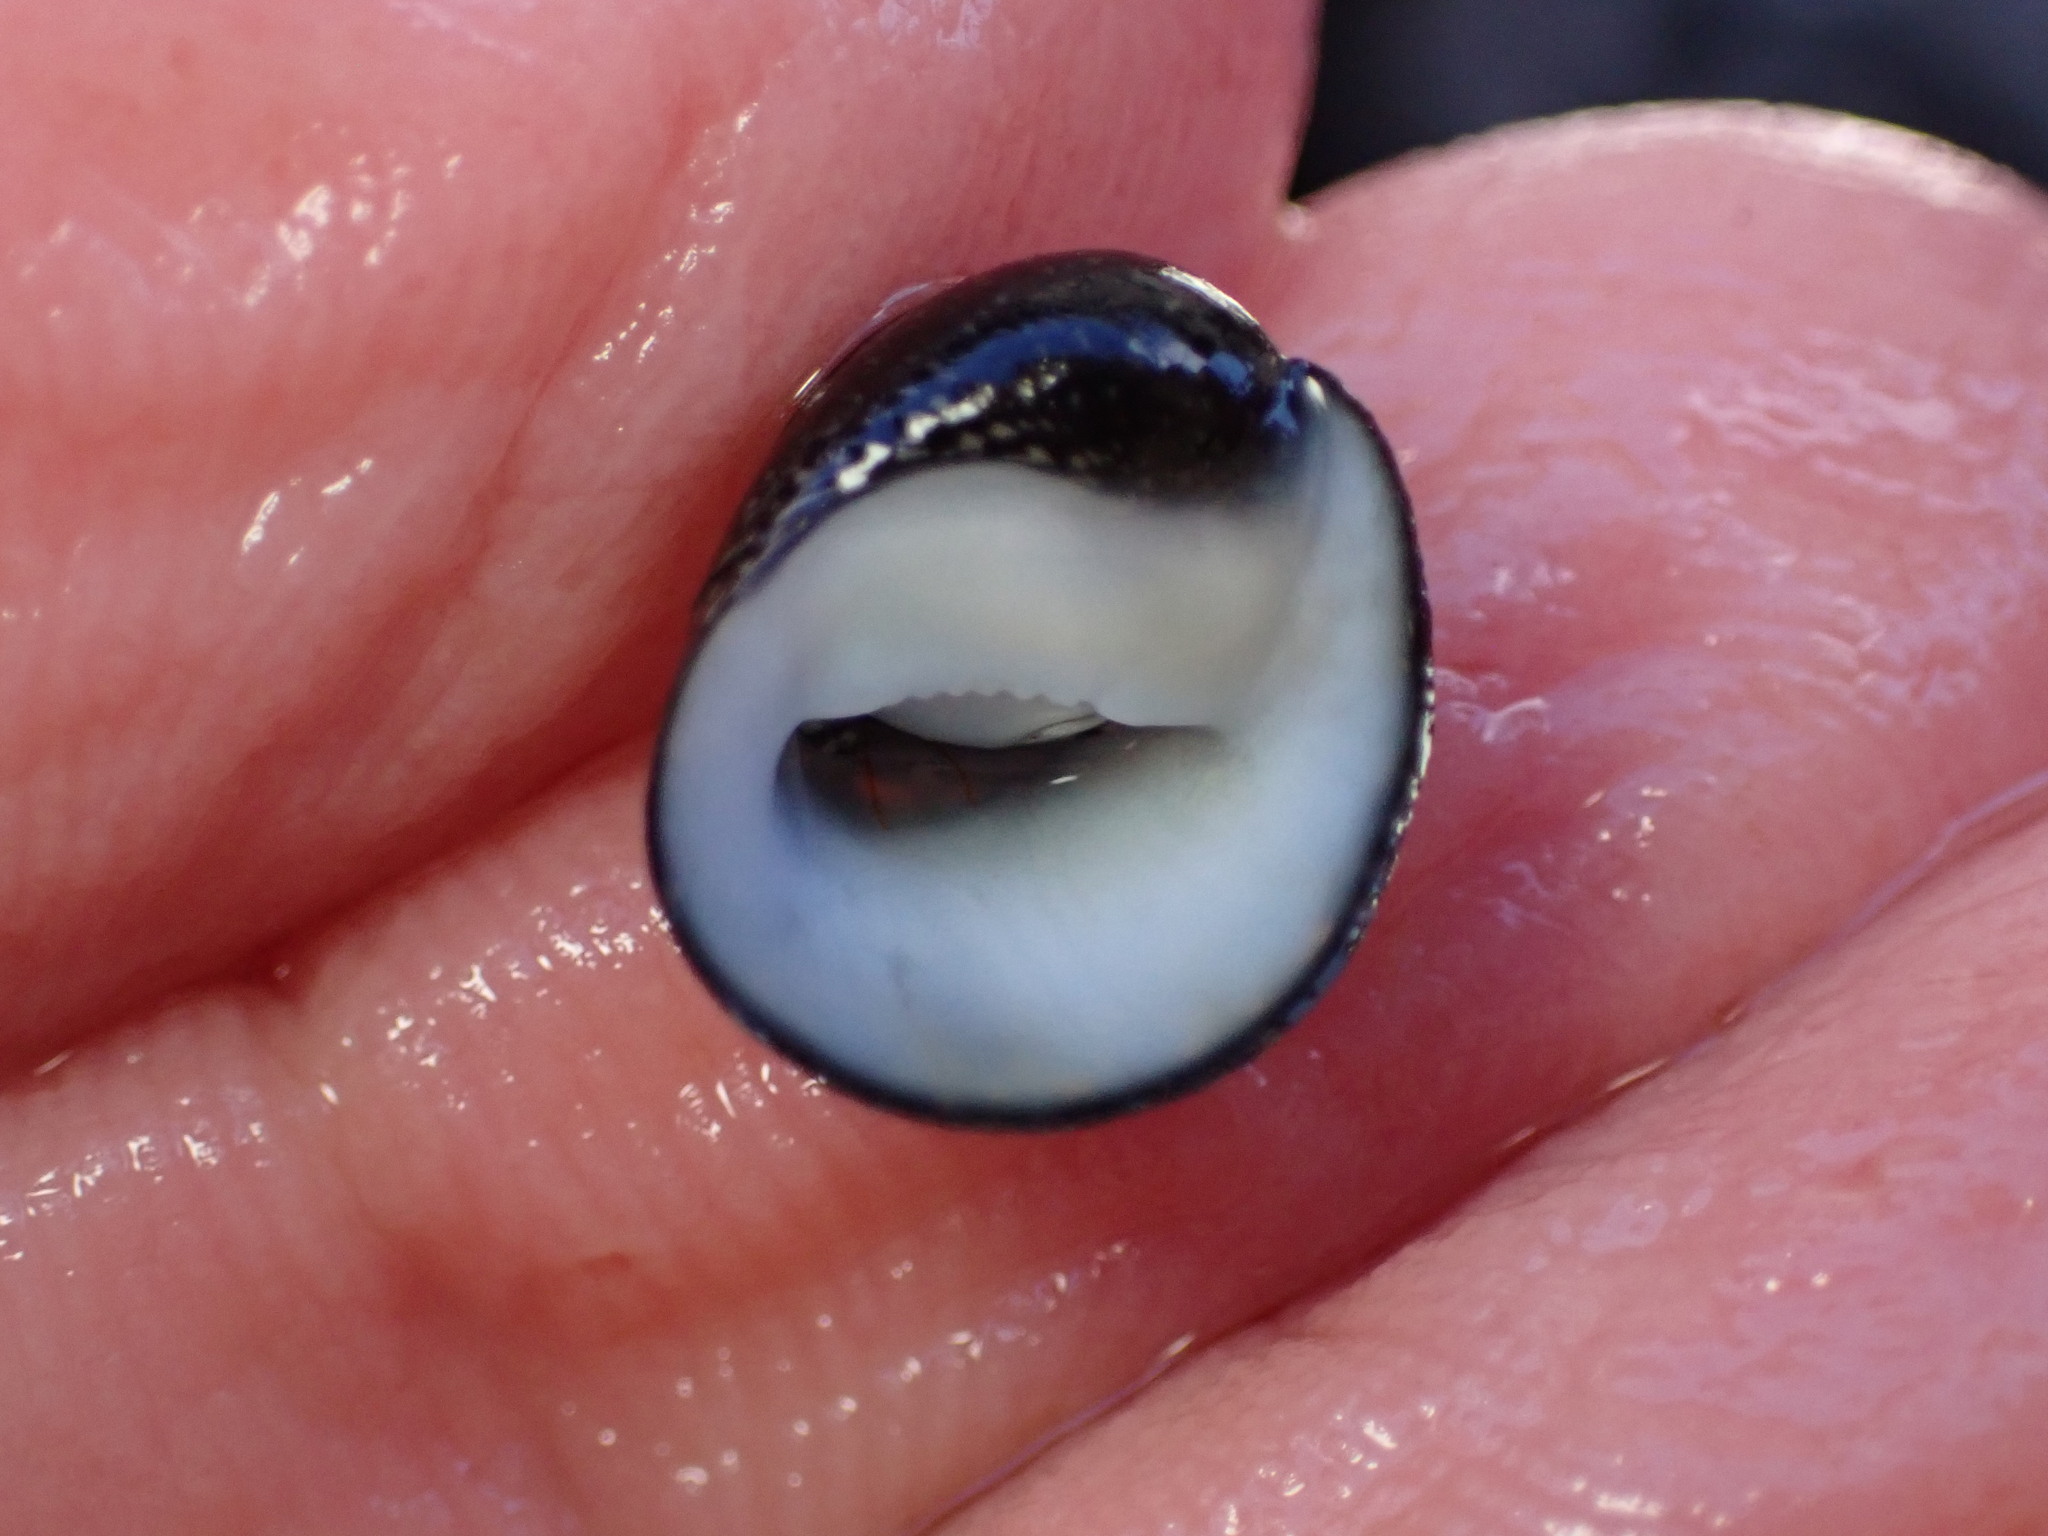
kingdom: Animalia
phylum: Mollusca
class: Gastropoda
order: Cycloneritida
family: Neritidae
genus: Neripteron
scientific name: Neripteron neglectum
